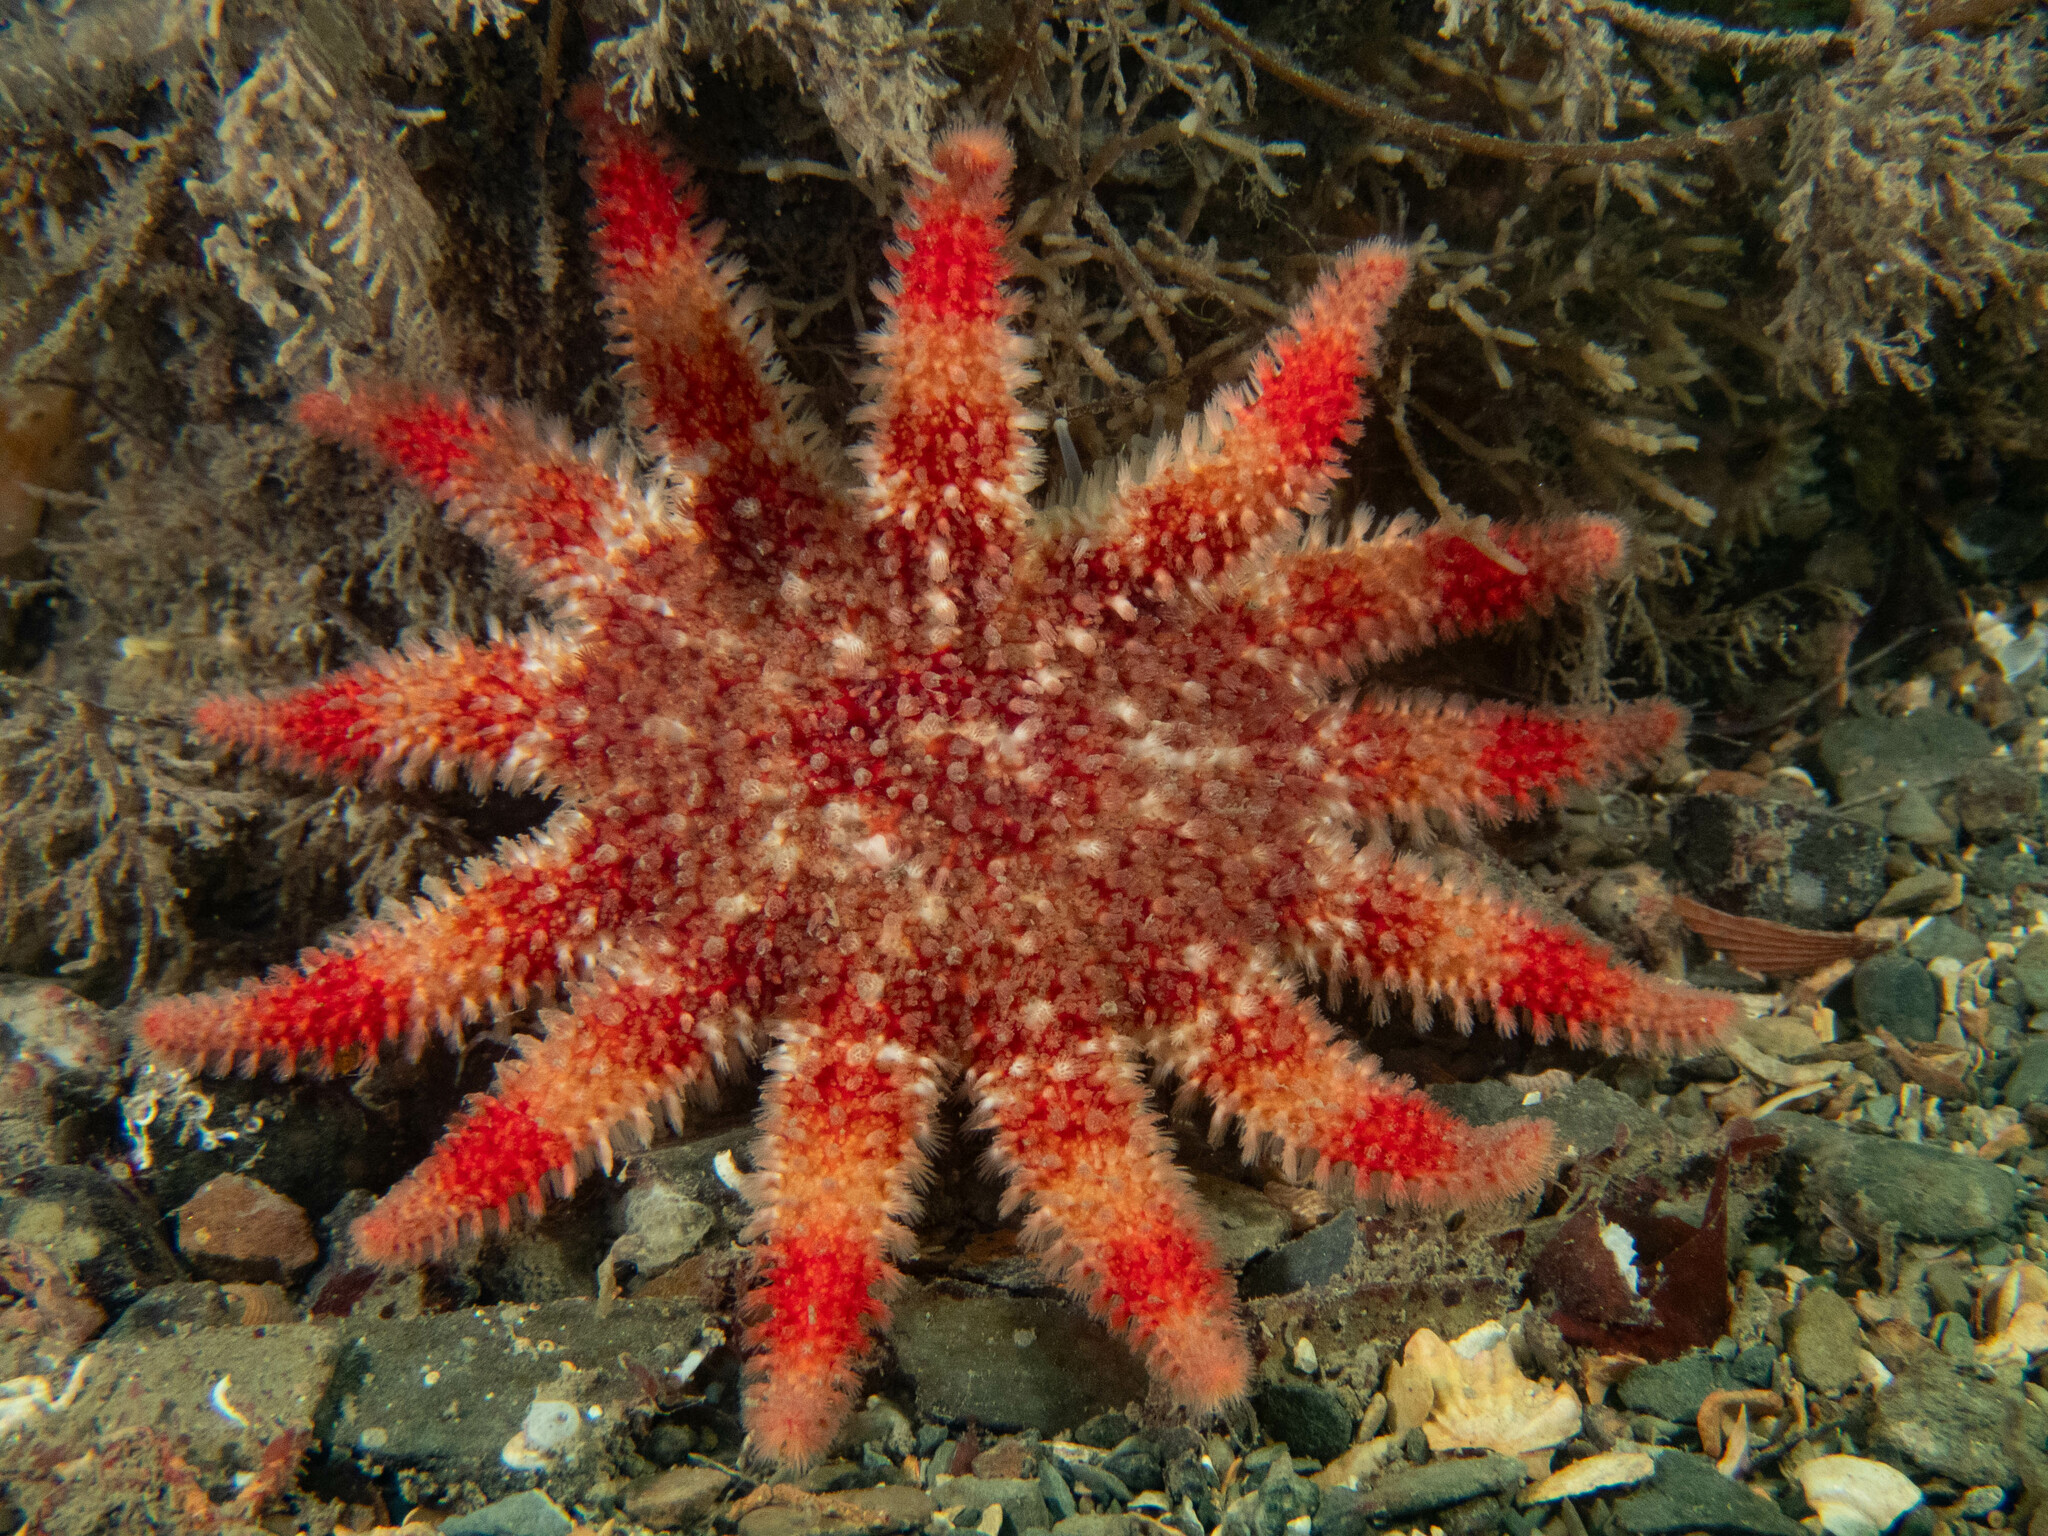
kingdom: Animalia
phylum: Echinodermata
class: Asteroidea
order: Valvatida
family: Solasteridae
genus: Crossaster
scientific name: Crossaster papposus
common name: Common sun star
